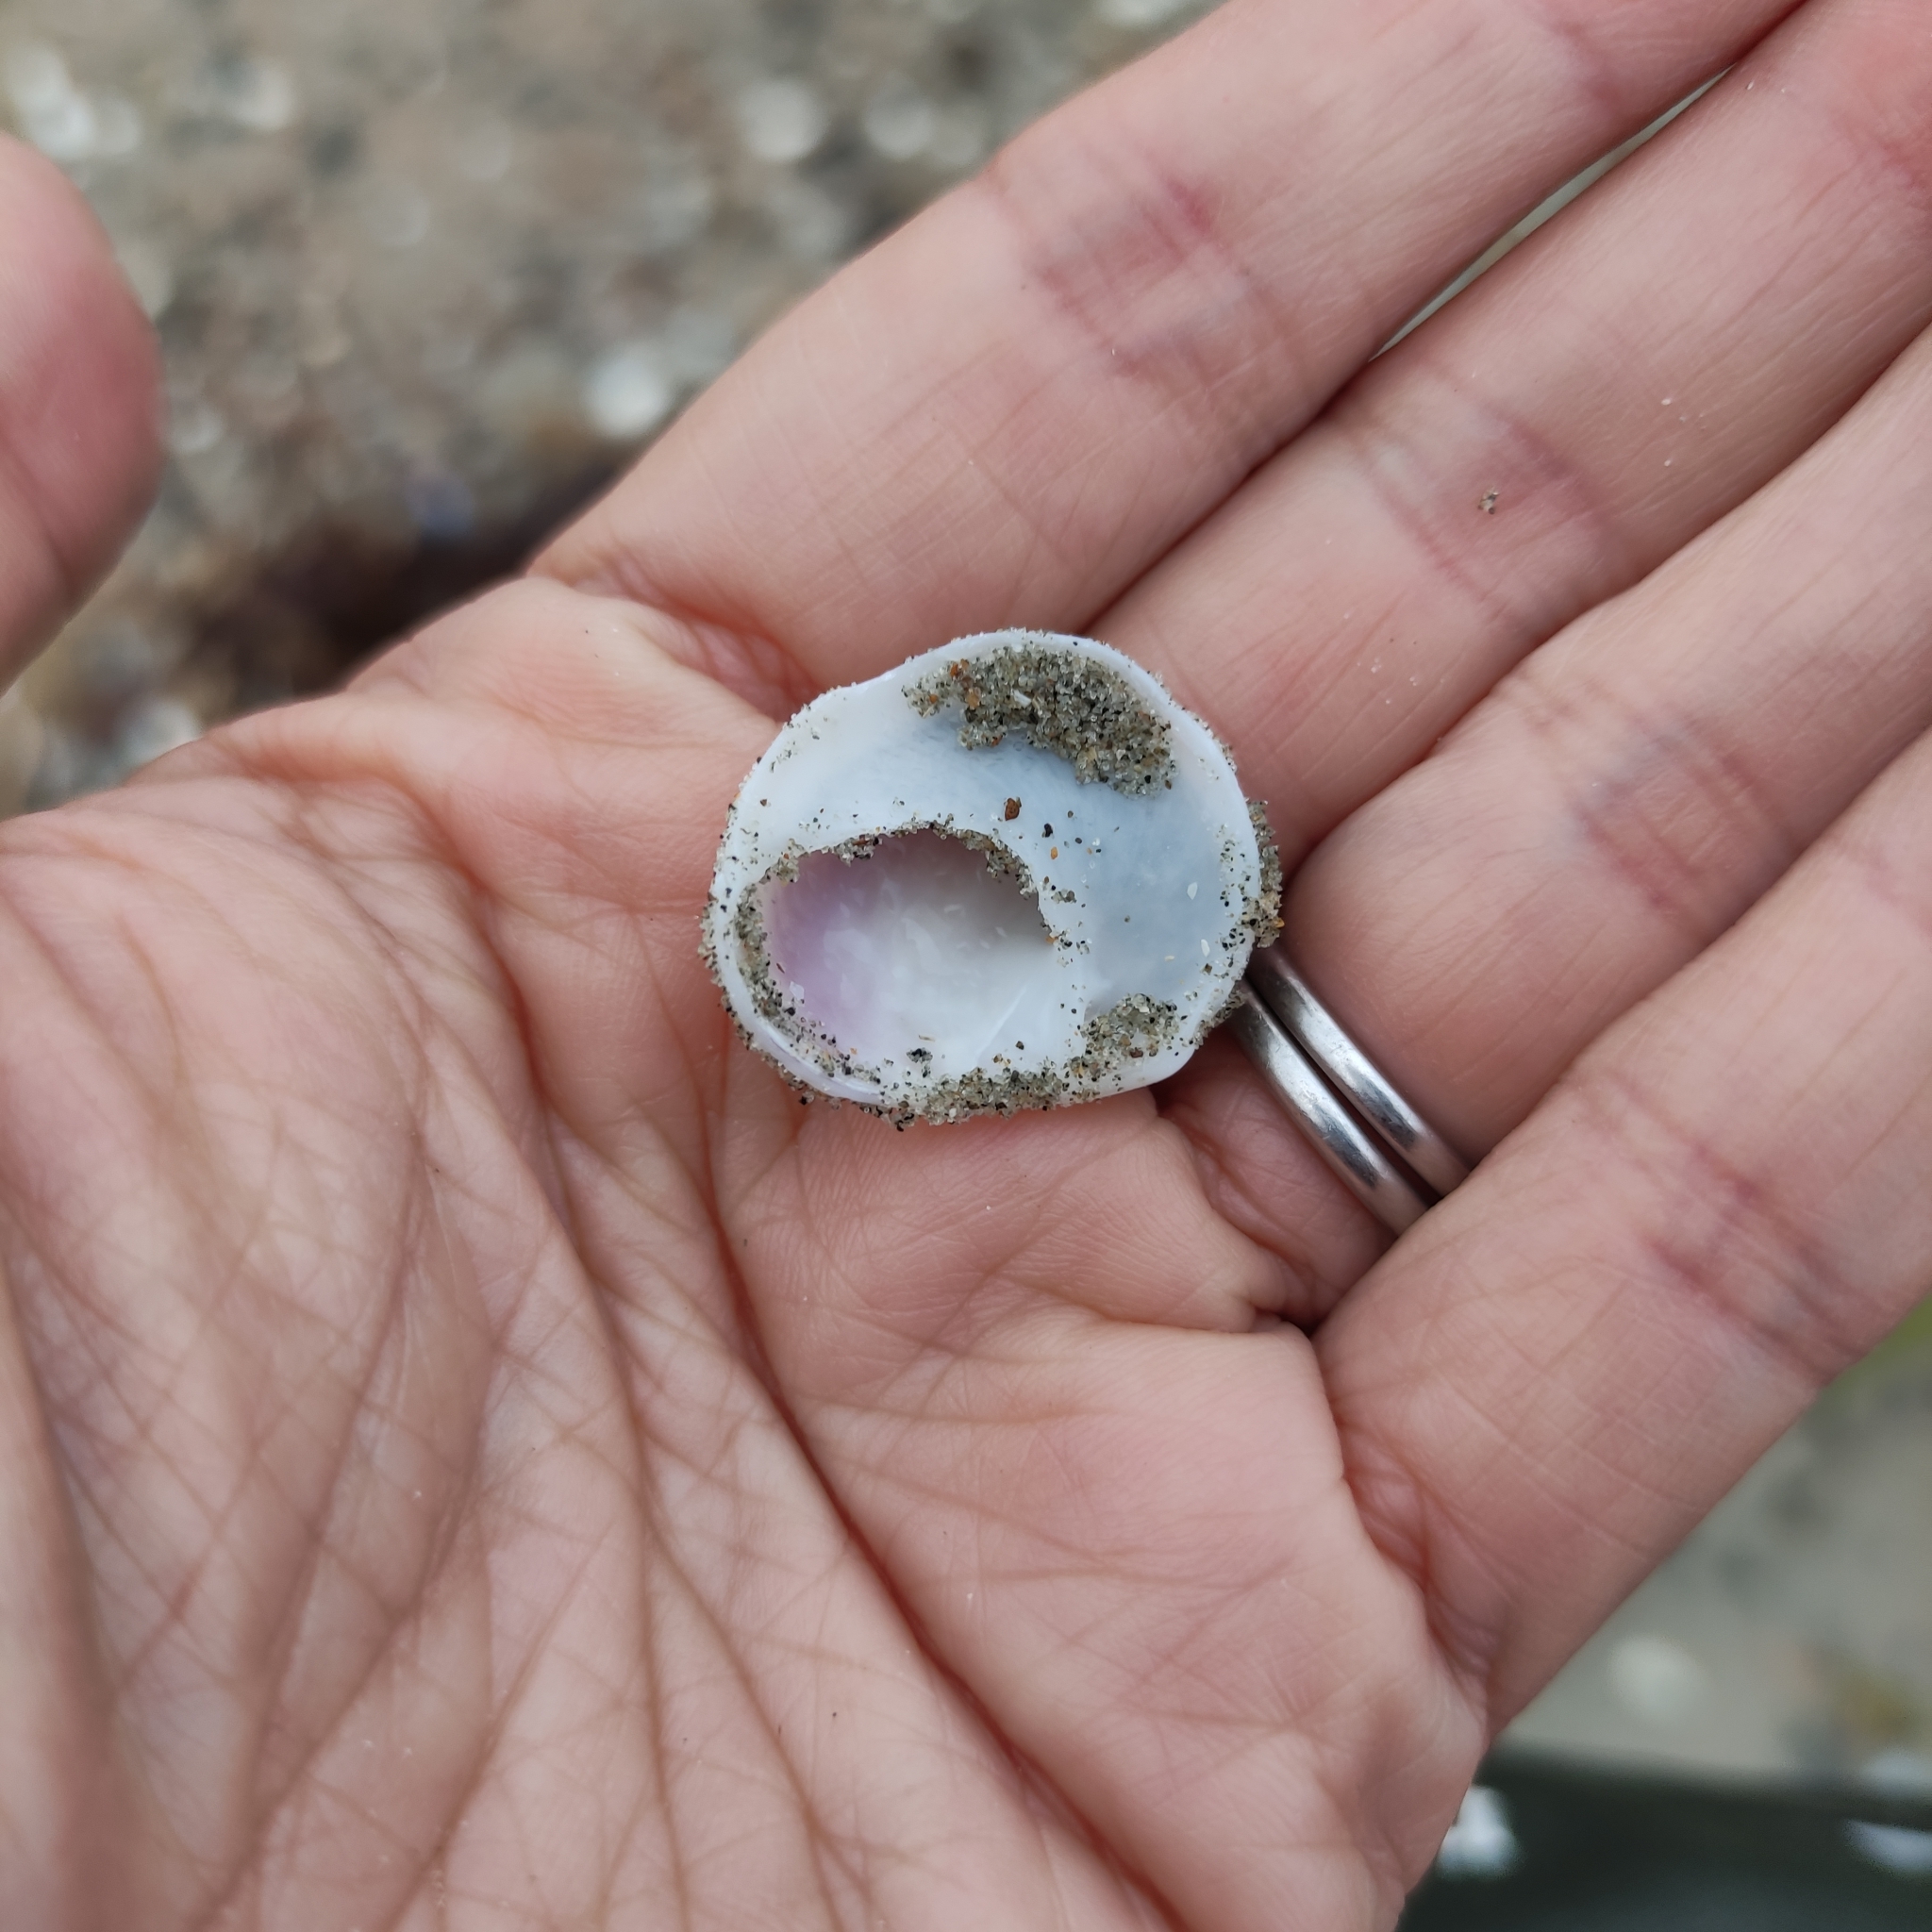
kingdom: Animalia
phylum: Mollusca
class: Gastropoda
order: Littorinimorpha
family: Calyptraeidae
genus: Sigapatella
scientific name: Sigapatella novaezelandiae
